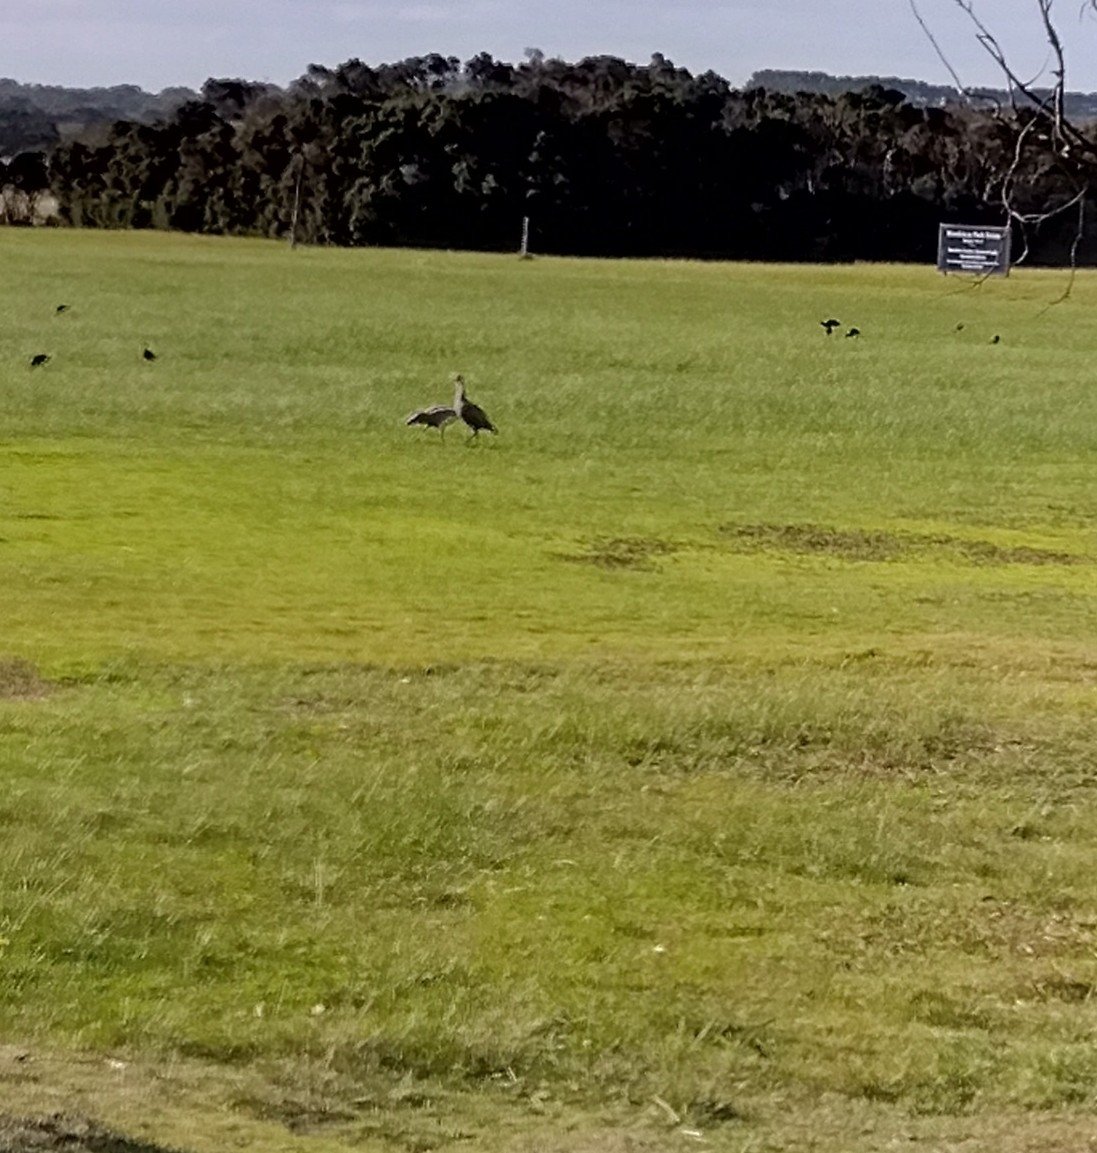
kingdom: Animalia
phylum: Chordata
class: Aves
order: Anseriformes
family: Anatidae
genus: Cereopsis
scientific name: Cereopsis novaehollandiae
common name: Cape barren goose
